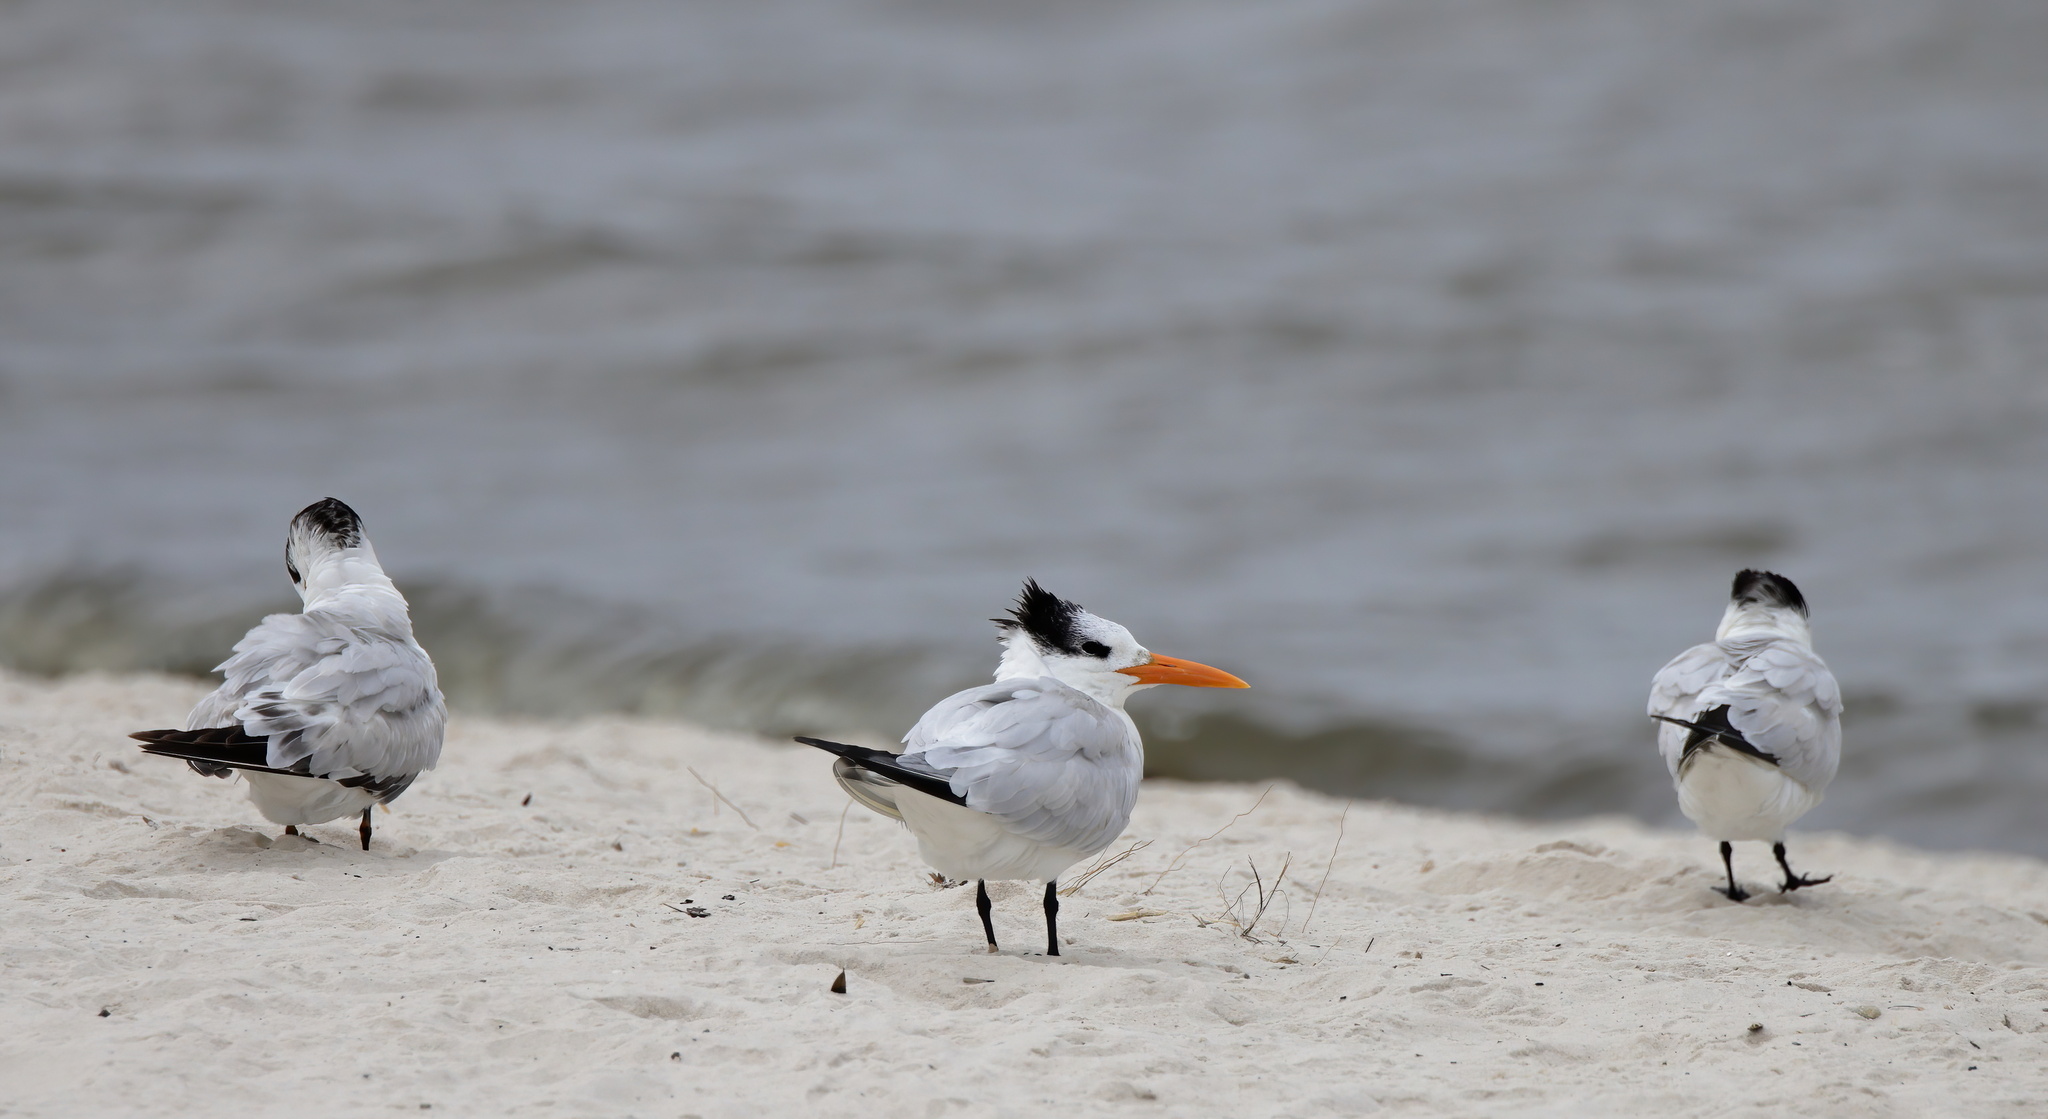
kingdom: Animalia
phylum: Chordata
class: Aves
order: Charadriiformes
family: Laridae
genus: Thalasseus
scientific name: Thalasseus maximus
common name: Royal tern
